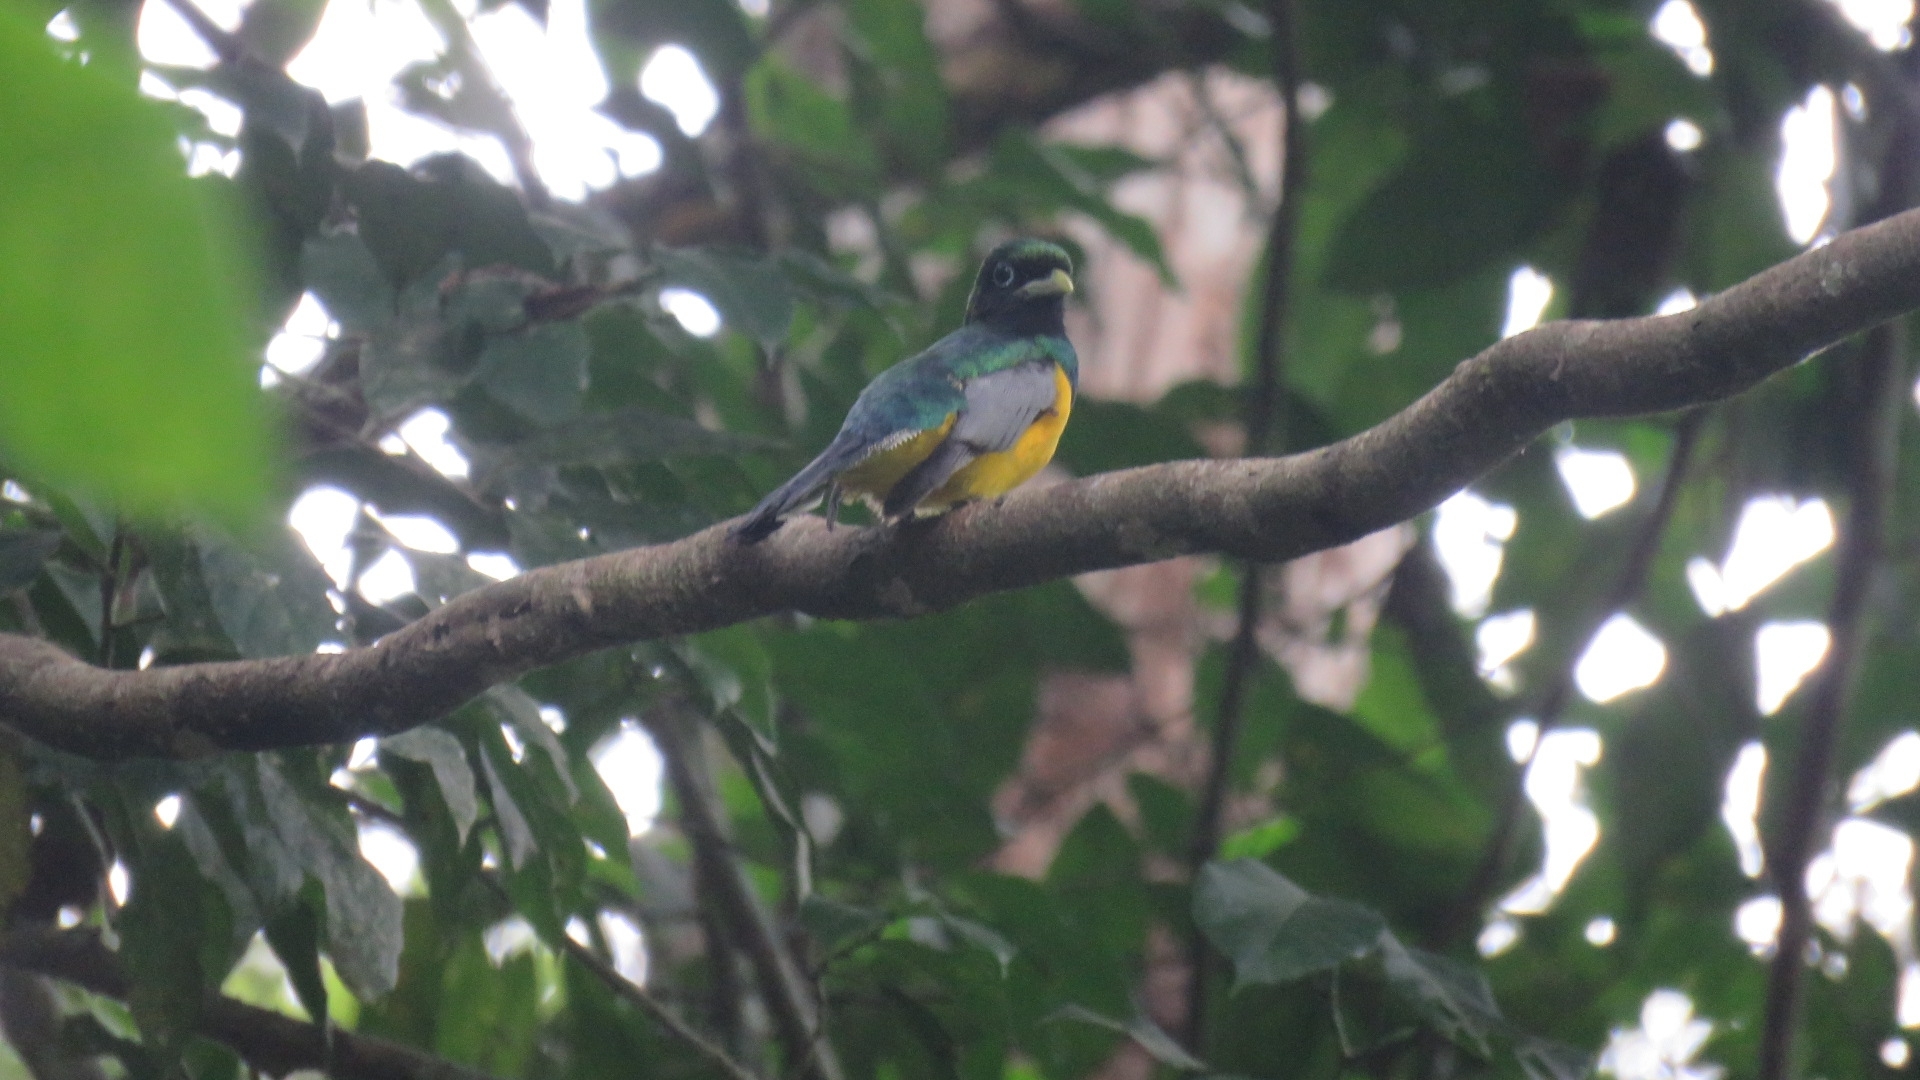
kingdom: Animalia
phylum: Chordata
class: Aves
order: Trogoniformes
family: Trogonidae
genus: Trogon
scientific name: Trogon rufus
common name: Black-throated trogon
